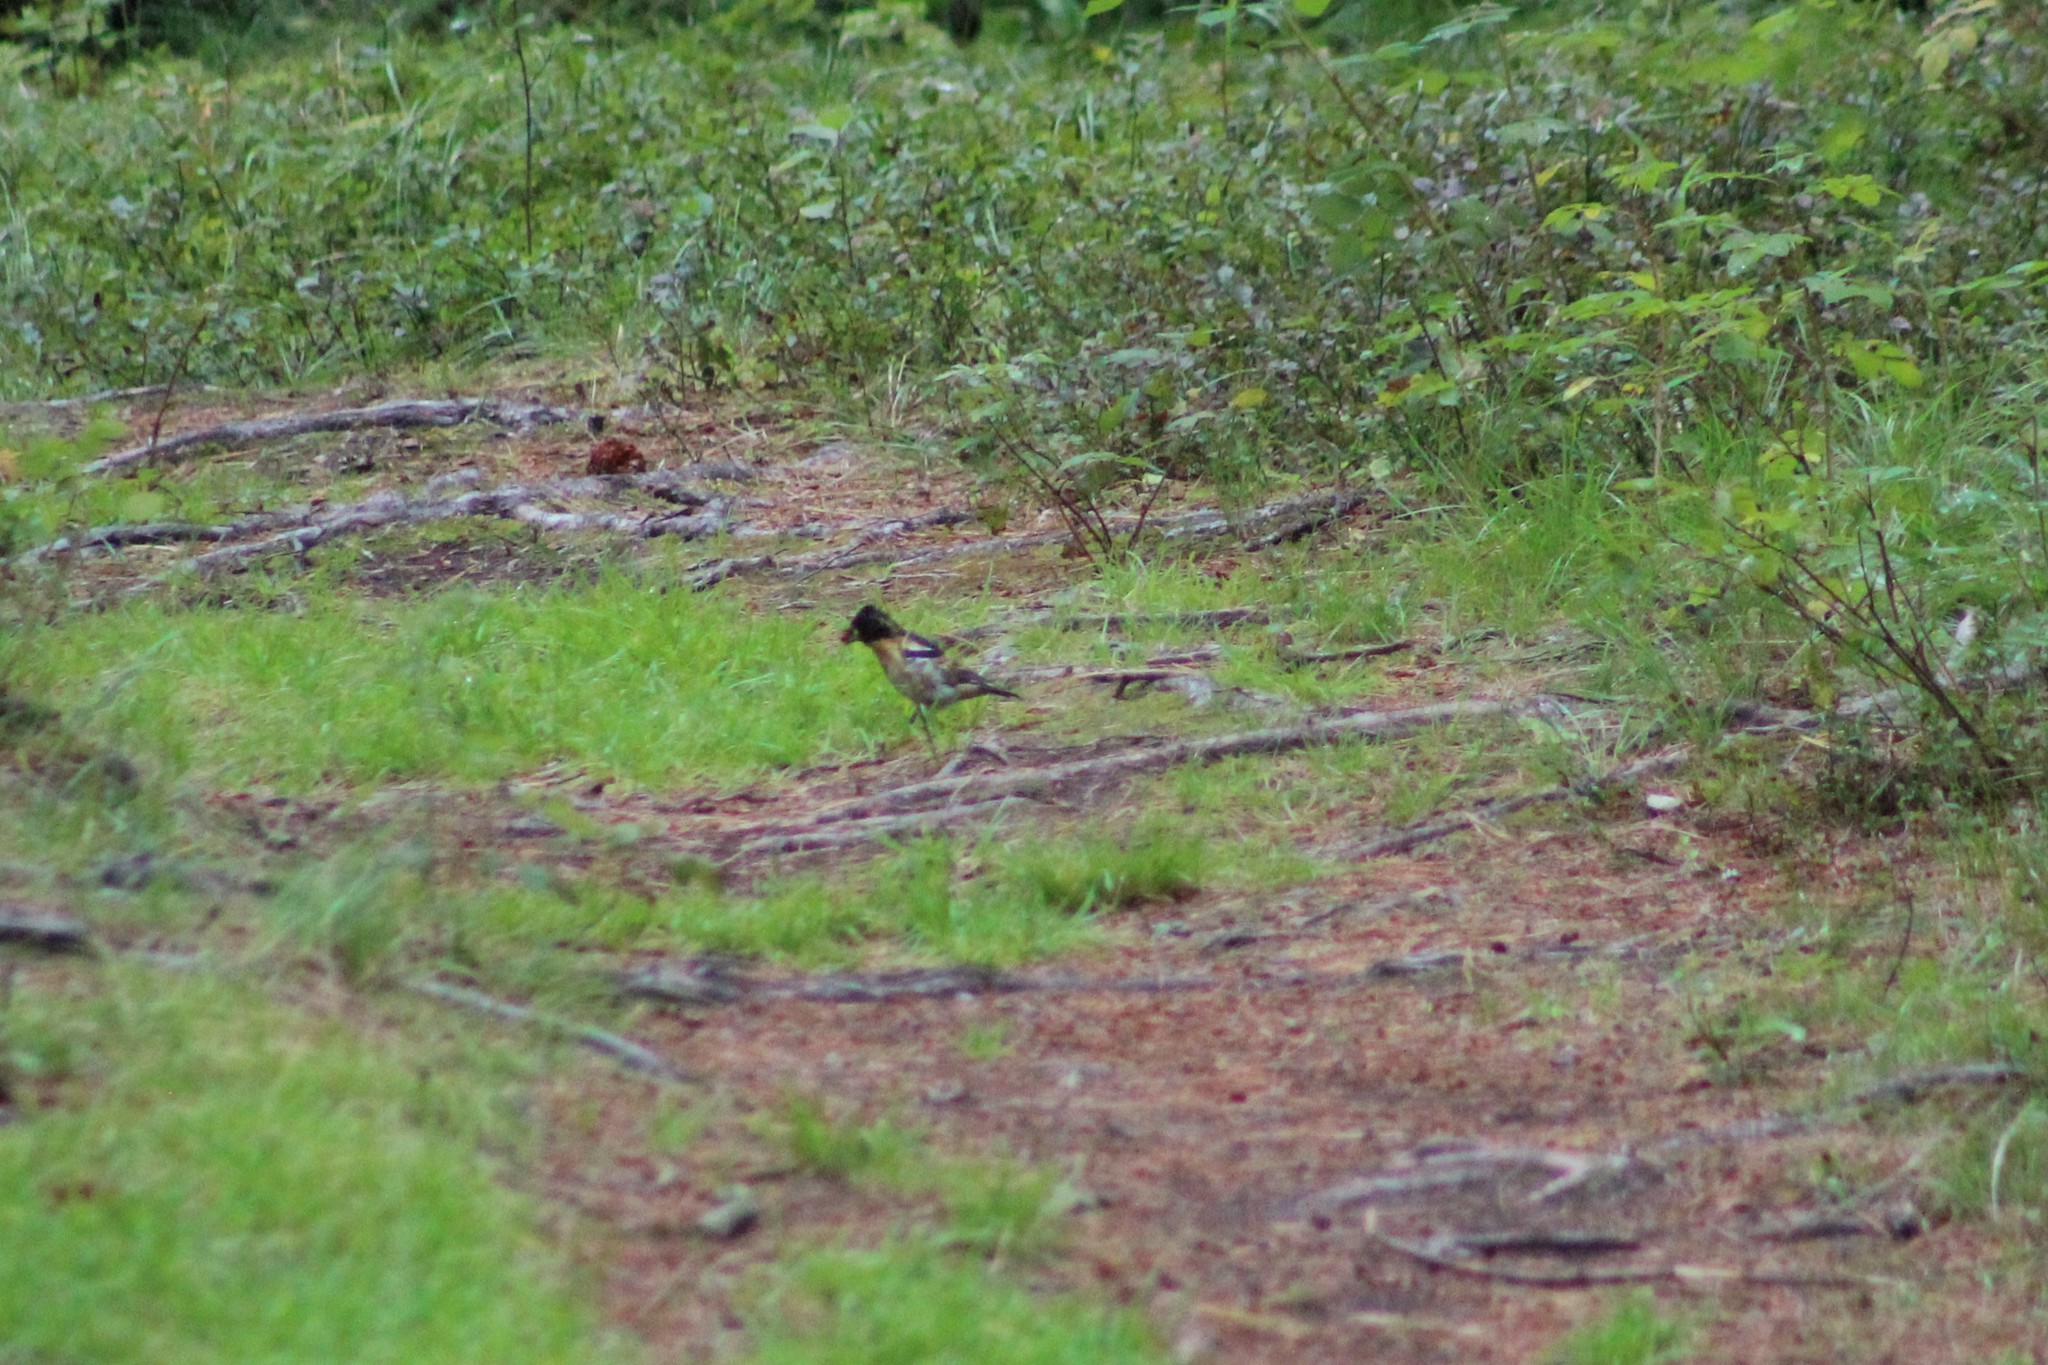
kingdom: Animalia
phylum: Chordata
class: Aves
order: Passeriformes
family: Fringillidae
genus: Fringilla
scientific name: Fringilla montifringilla
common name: Brambling
